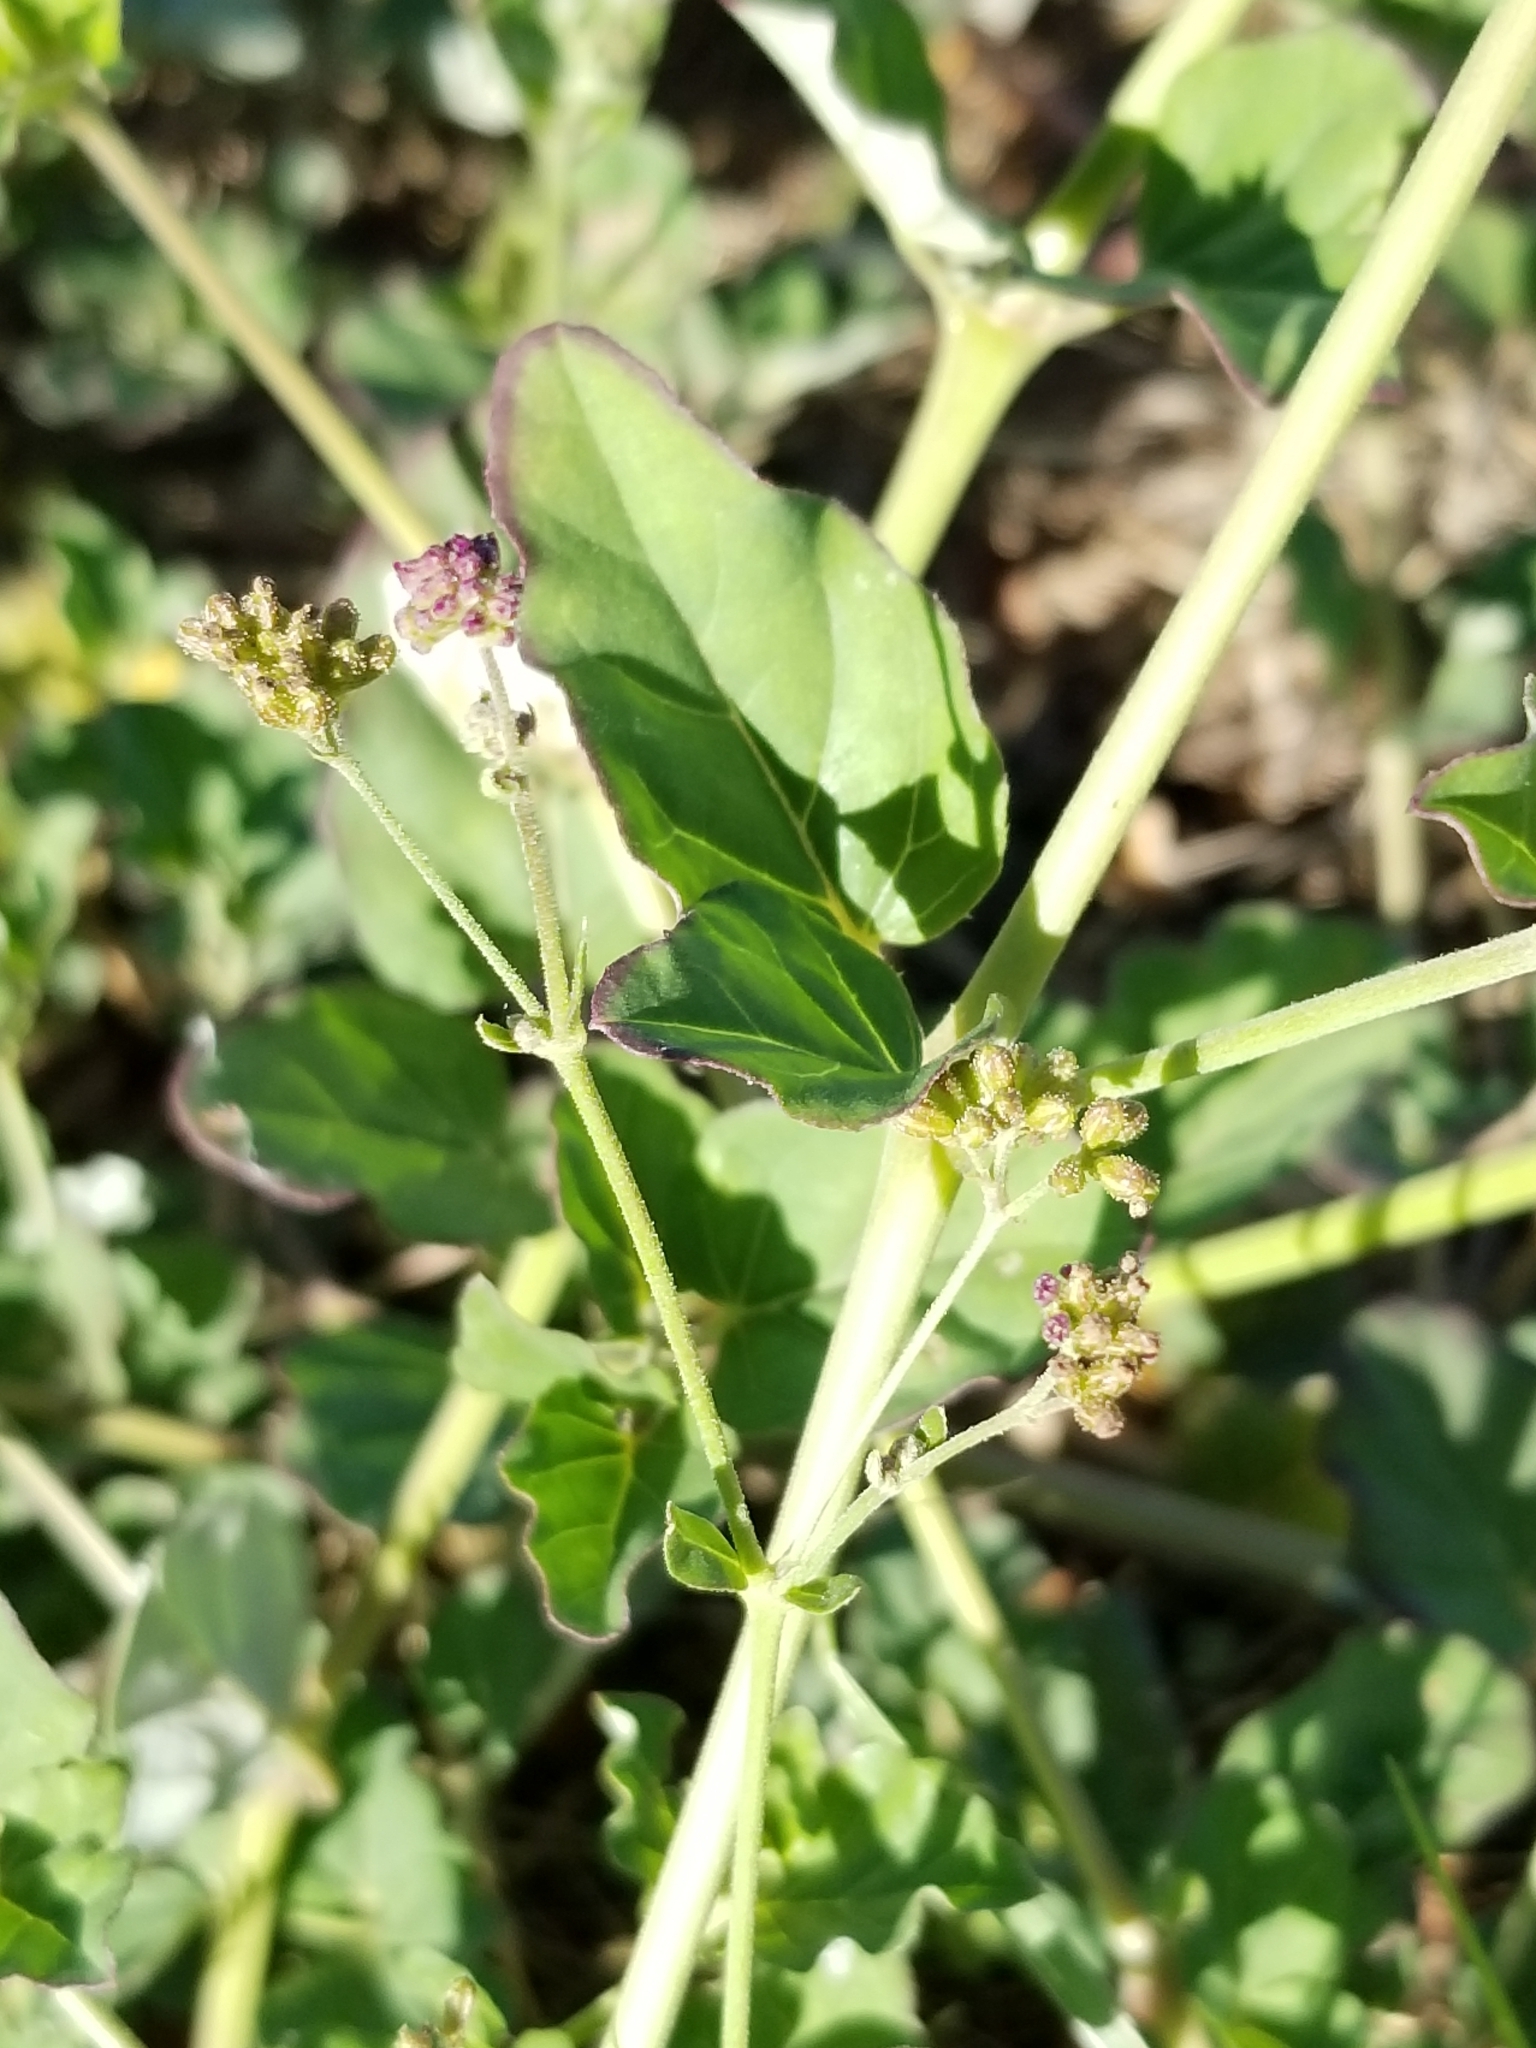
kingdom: Plantae
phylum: Tracheophyta
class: Magnoliopsida
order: Caryophyllales
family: Nyctaginaceae
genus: Boerhavia
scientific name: Boerhavia coccinea
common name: Scarlet spiderling
